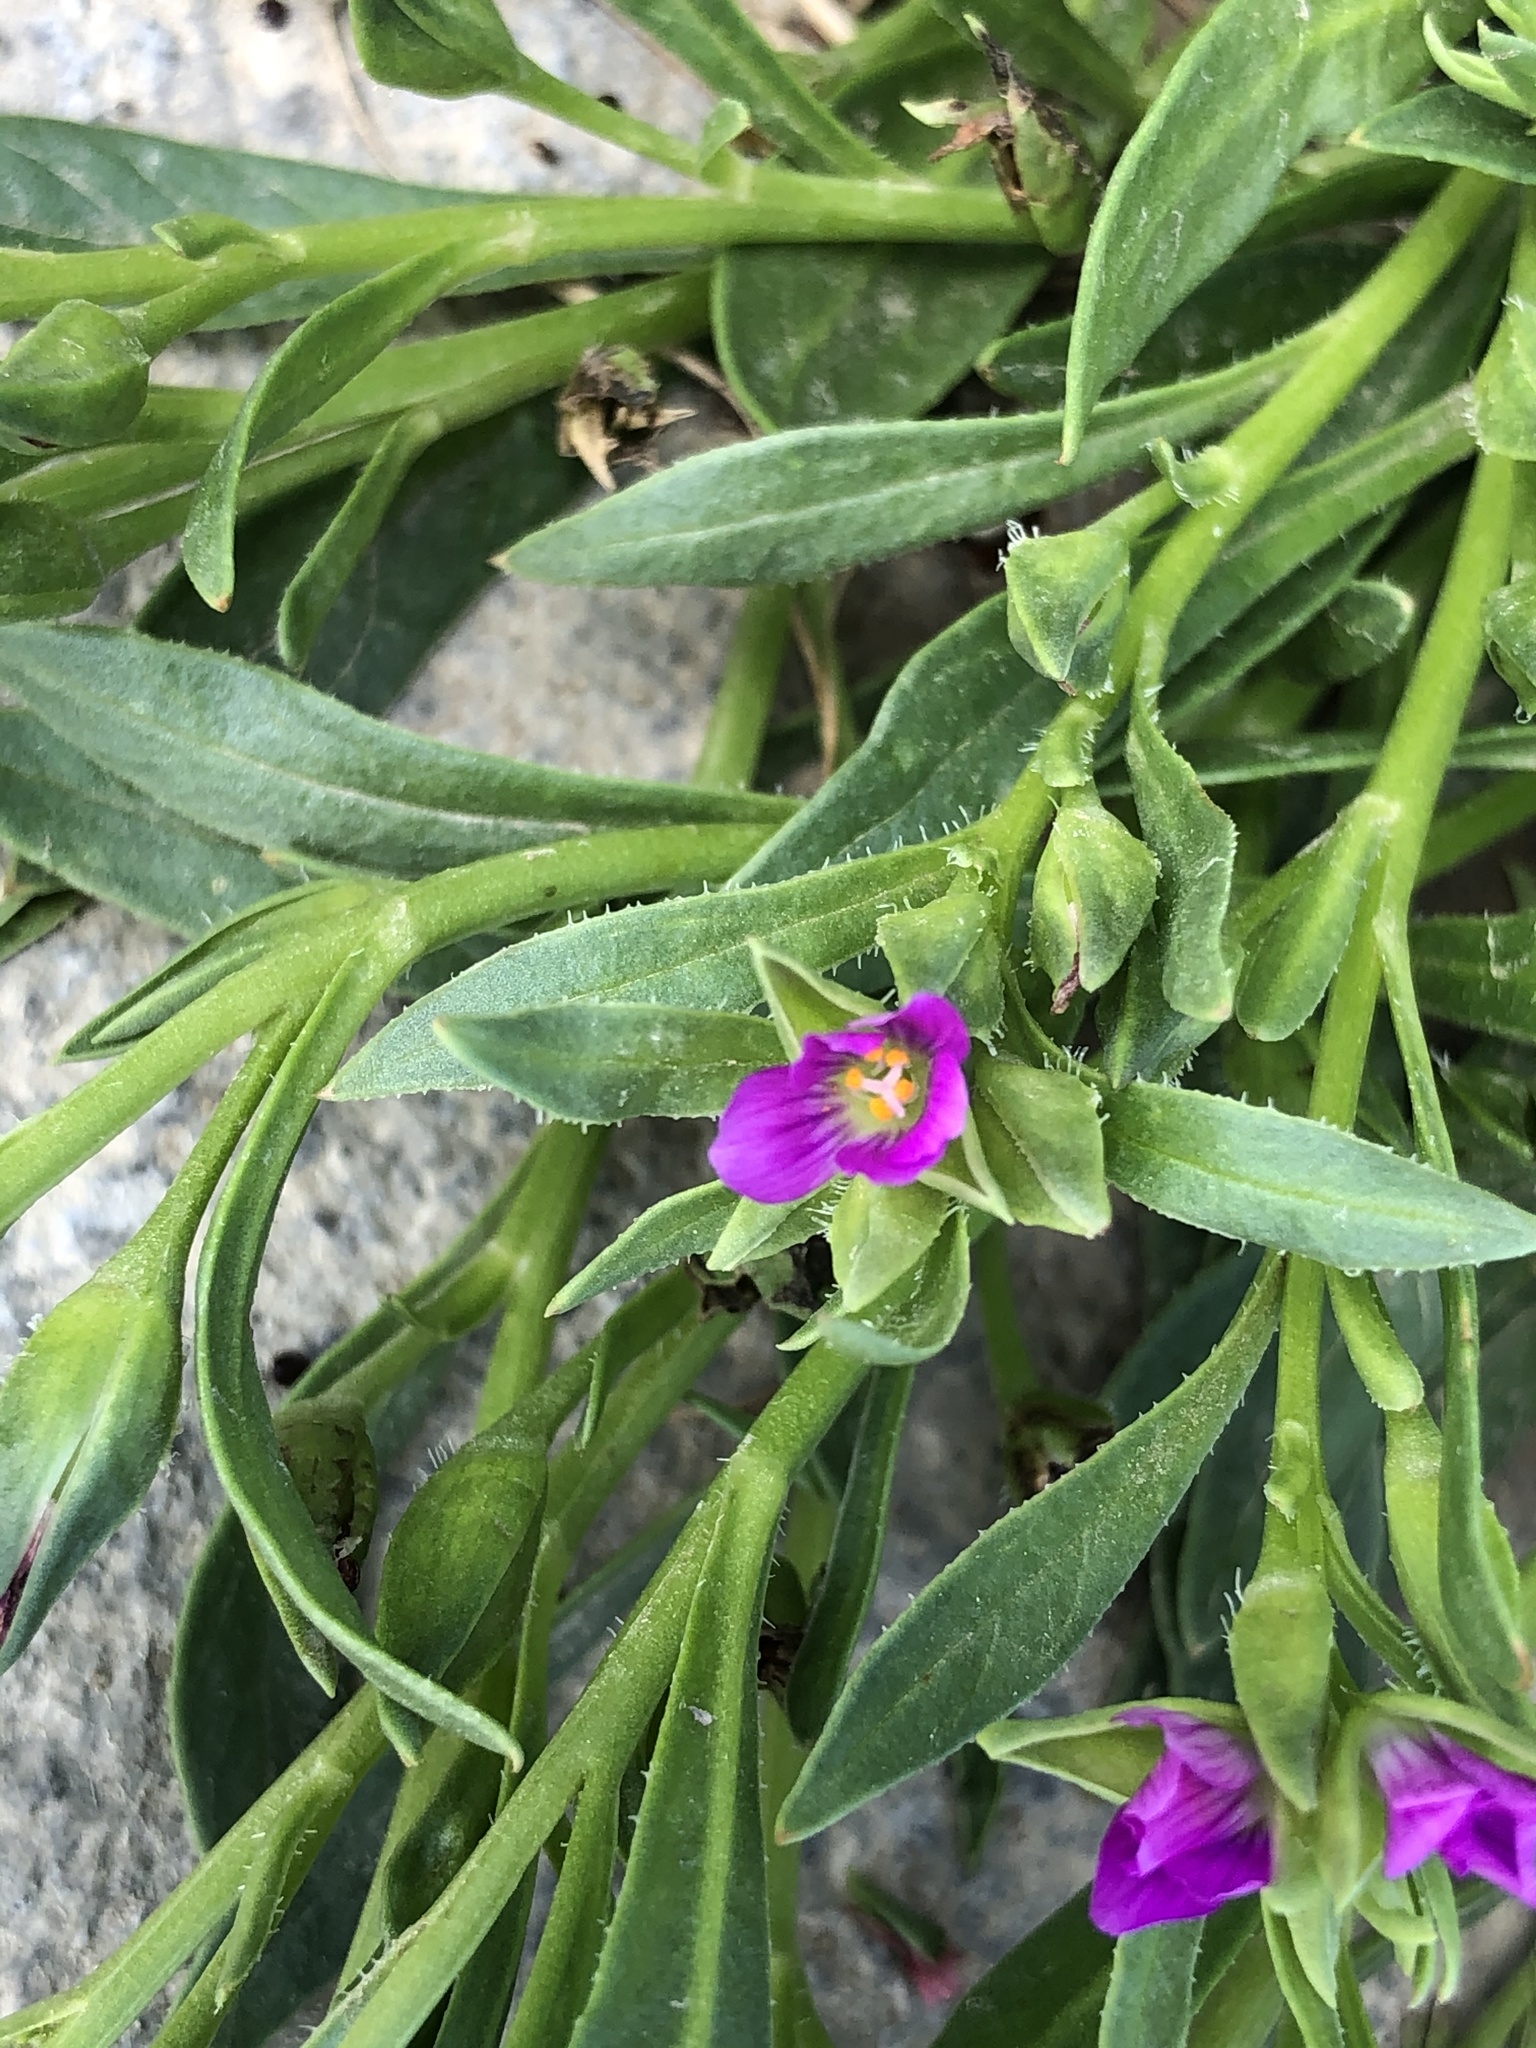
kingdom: Plantae
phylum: Tracheophyta
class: Magnoliopsida
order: Caryophyllales
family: Montiaceae
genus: Calandrinia
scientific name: Calandrinia menziesii
